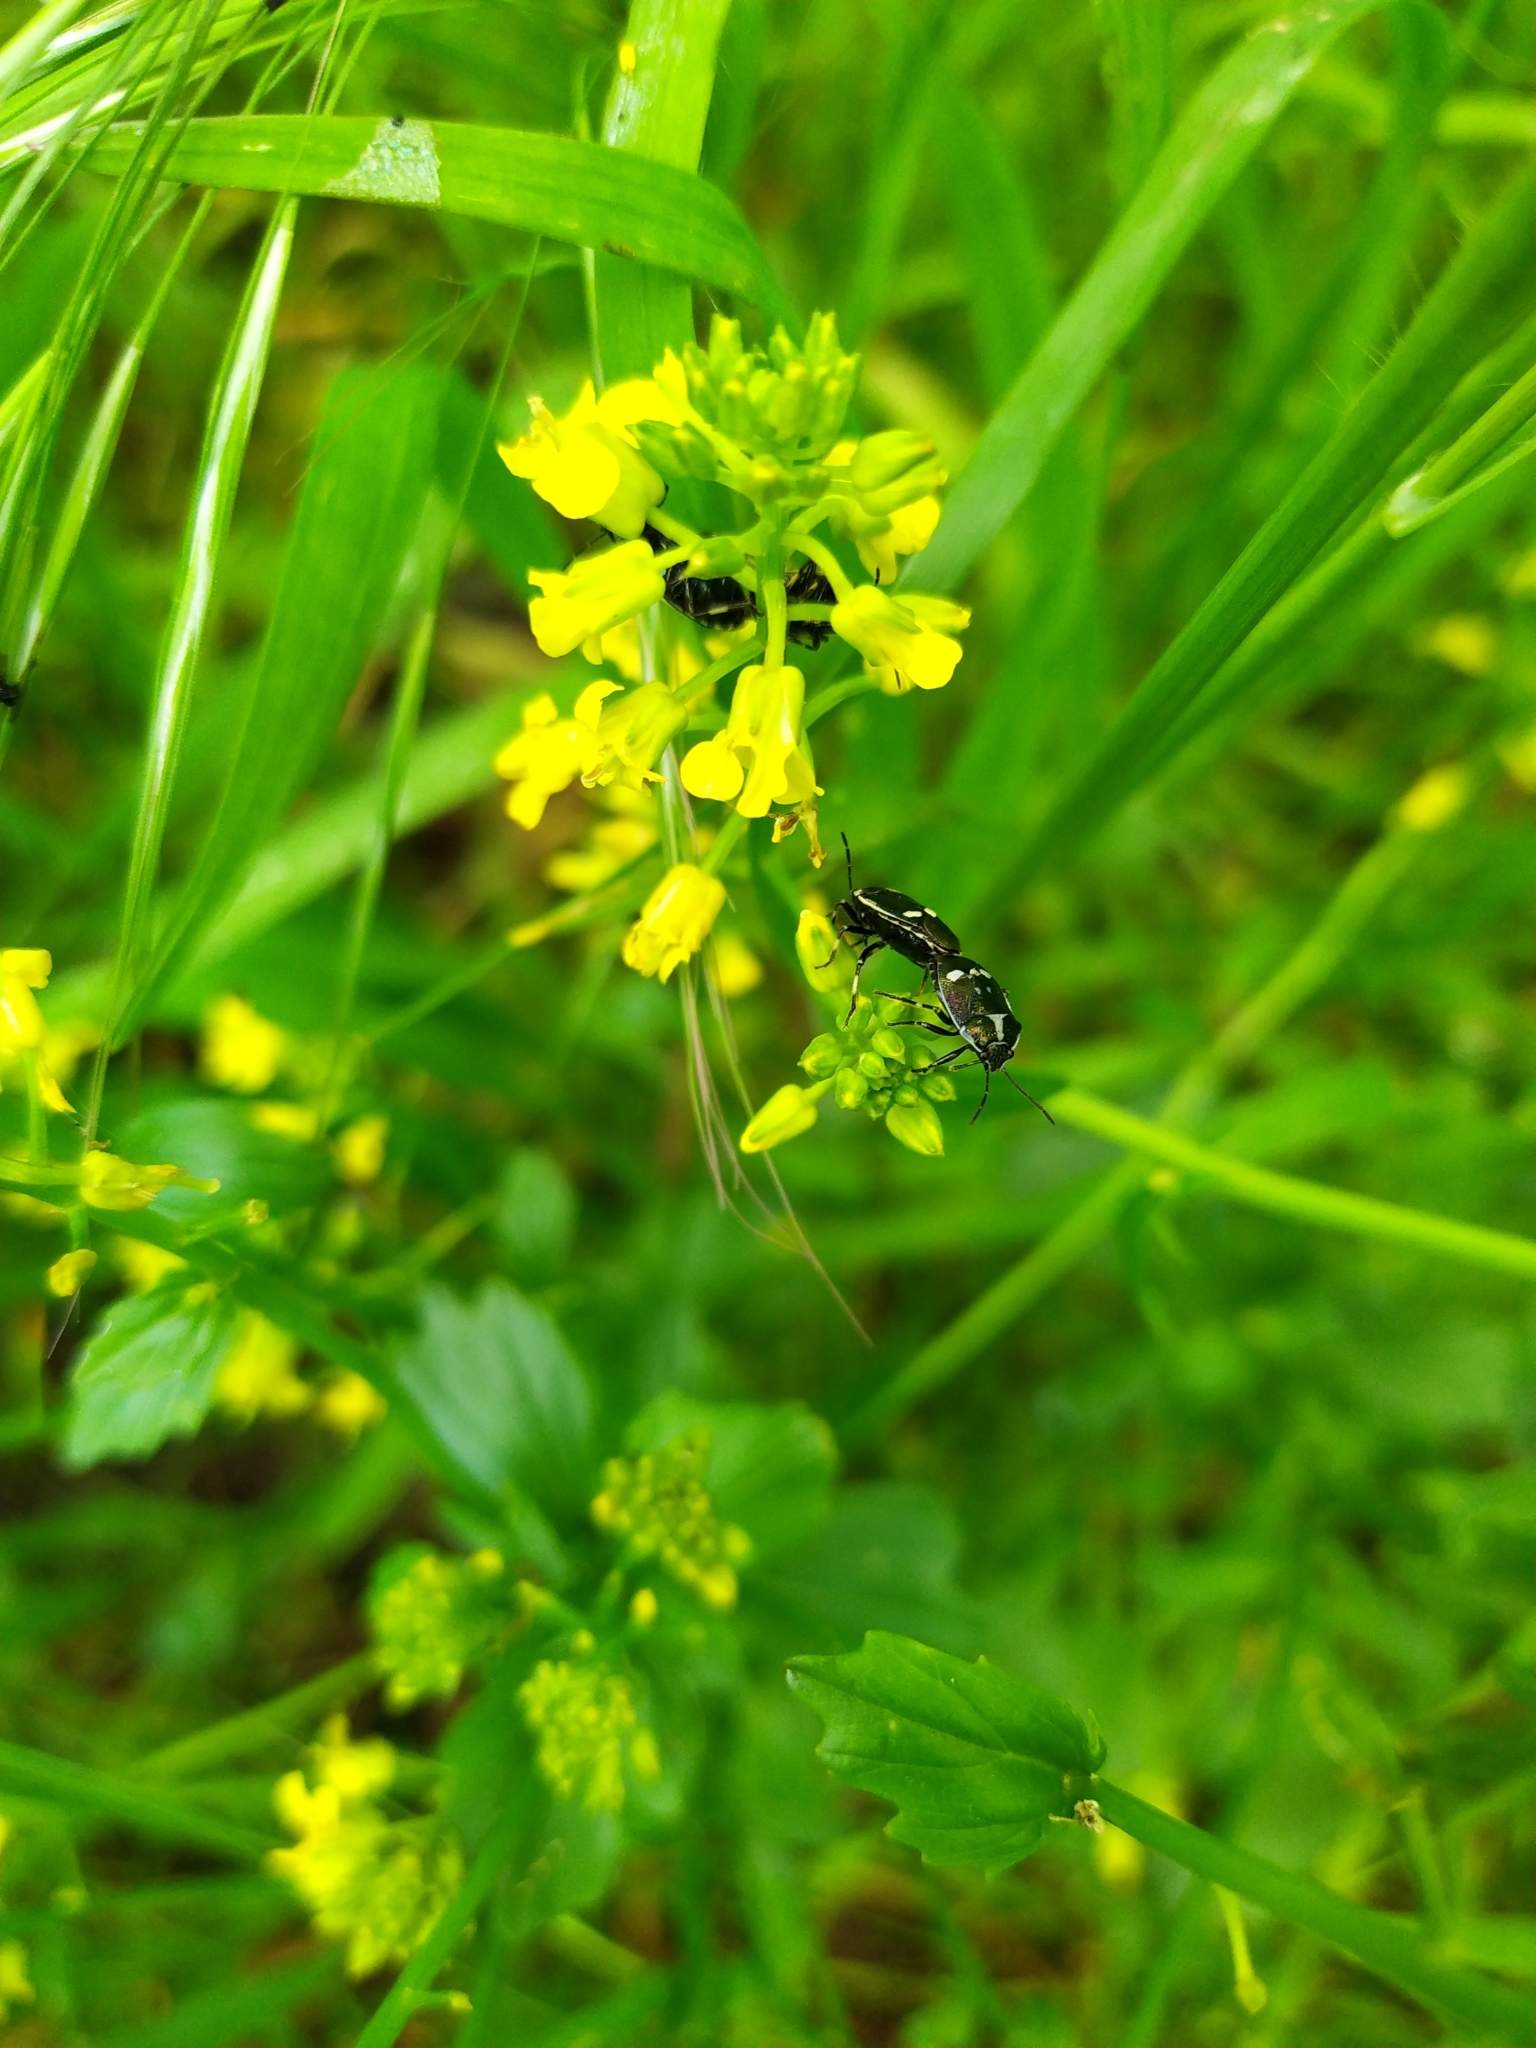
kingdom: Animalia
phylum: Arthropoda
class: Insecta
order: Hemiptera
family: Pentatomidae
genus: Eurydema
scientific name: Eurydema oleracea
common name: Cabbage bug
